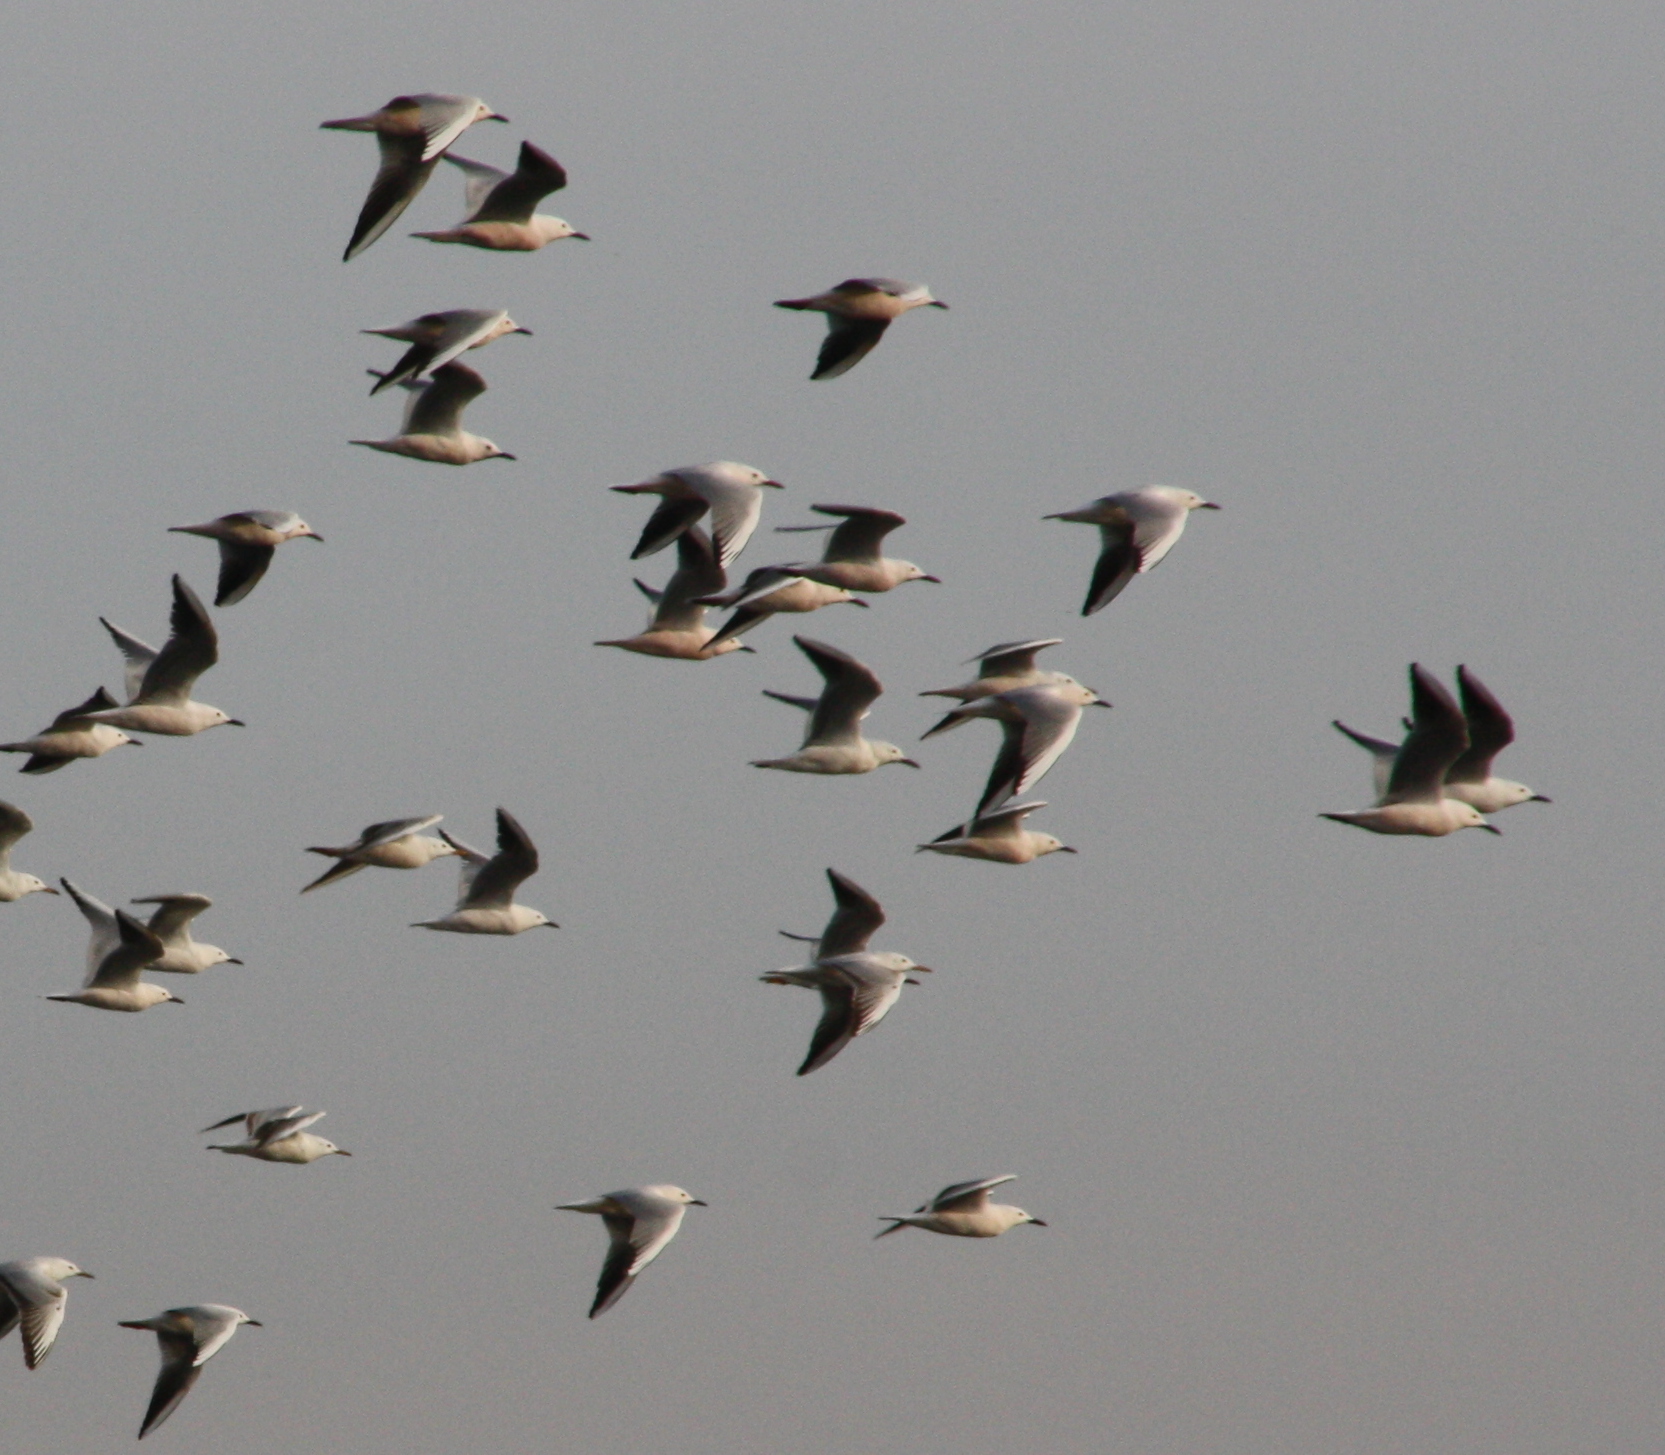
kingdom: Animalia
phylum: Chordata
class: Aves
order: Charadriiformes
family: Laridae
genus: Chroicocephalus
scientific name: Chroicocephalus genei
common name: Slender-billed gull
